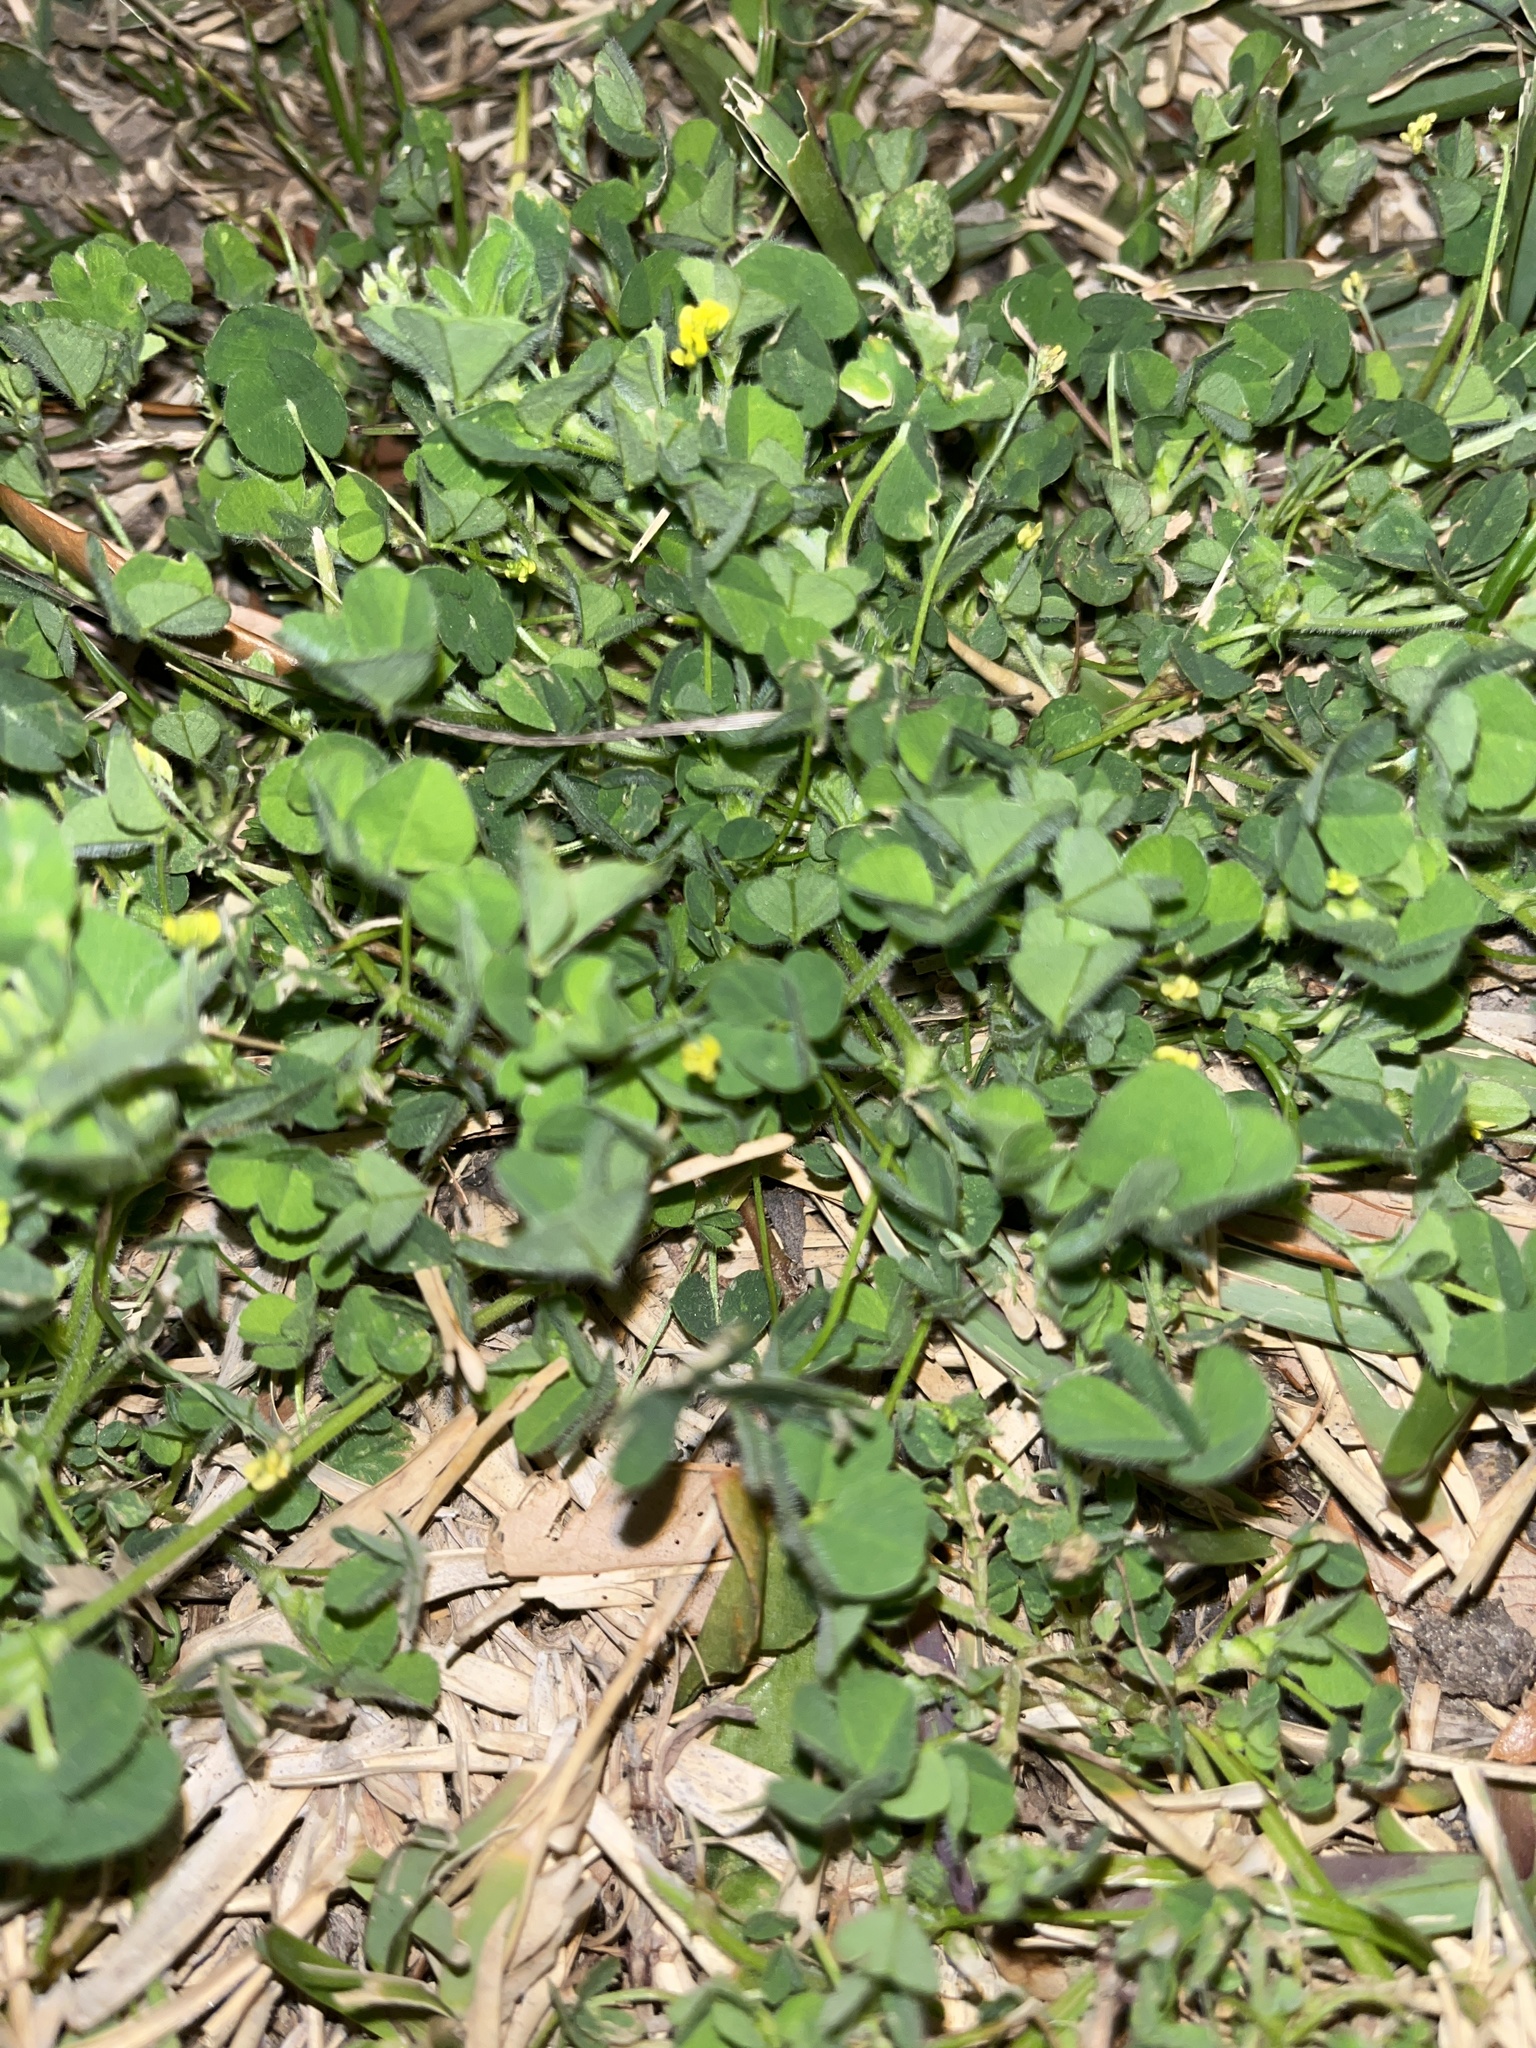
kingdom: Plantae
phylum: Tracheophyta
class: Magnoliopsida
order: Fabales
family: Fabaceae
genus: Medicago
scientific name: Medicago lupulina
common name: Black medick
